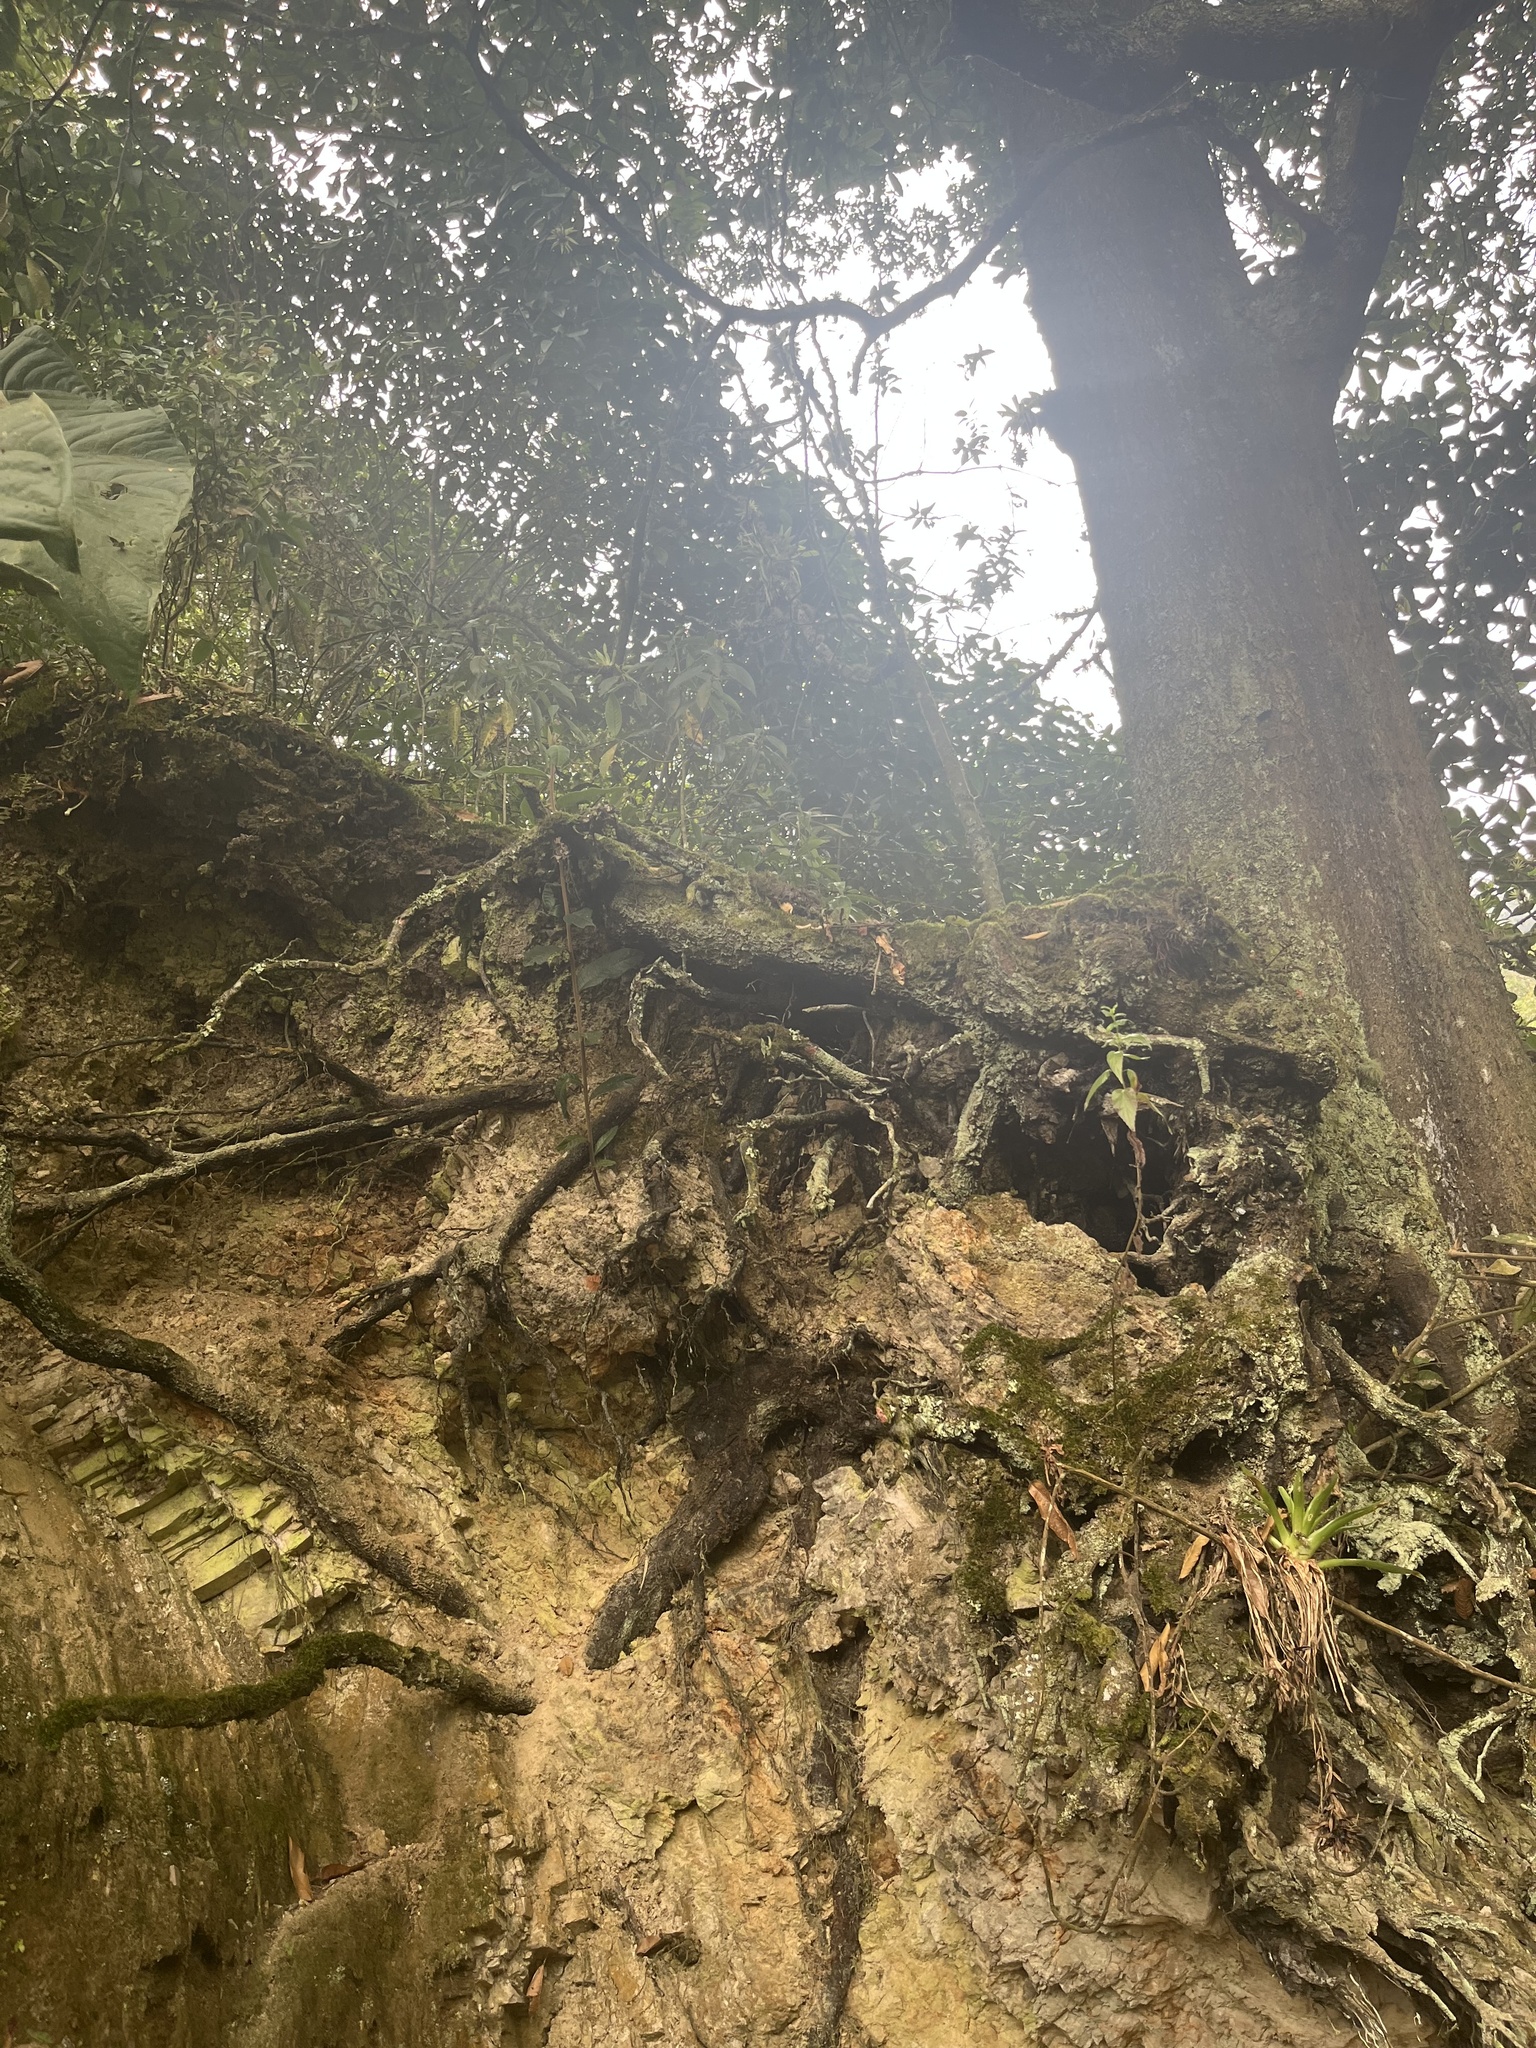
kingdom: Plantae
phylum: Tracheophyta
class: Magnoliopsida
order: Fagales
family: Fagaceae
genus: Quercus
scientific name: Quercus humboldtii
